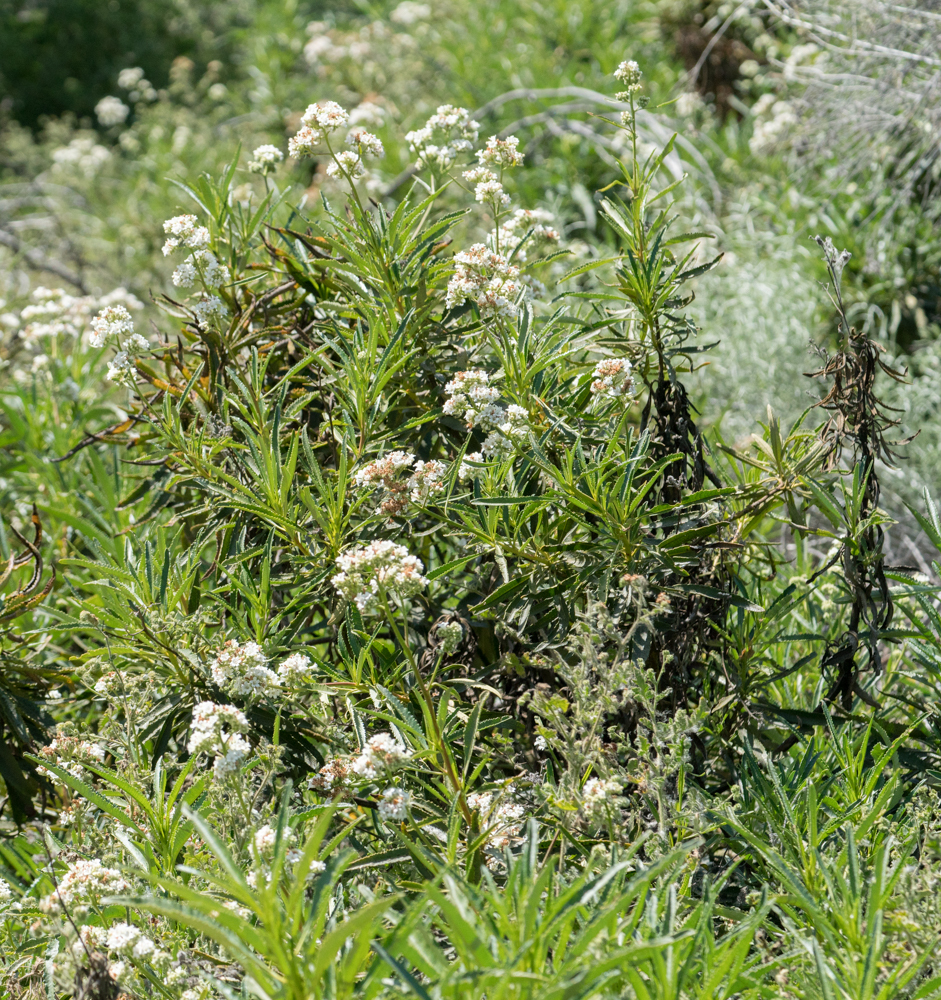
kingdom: Plantae
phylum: Tracheophyta
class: Magnoliopsida
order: Boraginales
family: Namaceae
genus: Eriodictyon
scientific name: Eriodictyon trichocalyx
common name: Hairy yerba-santa
